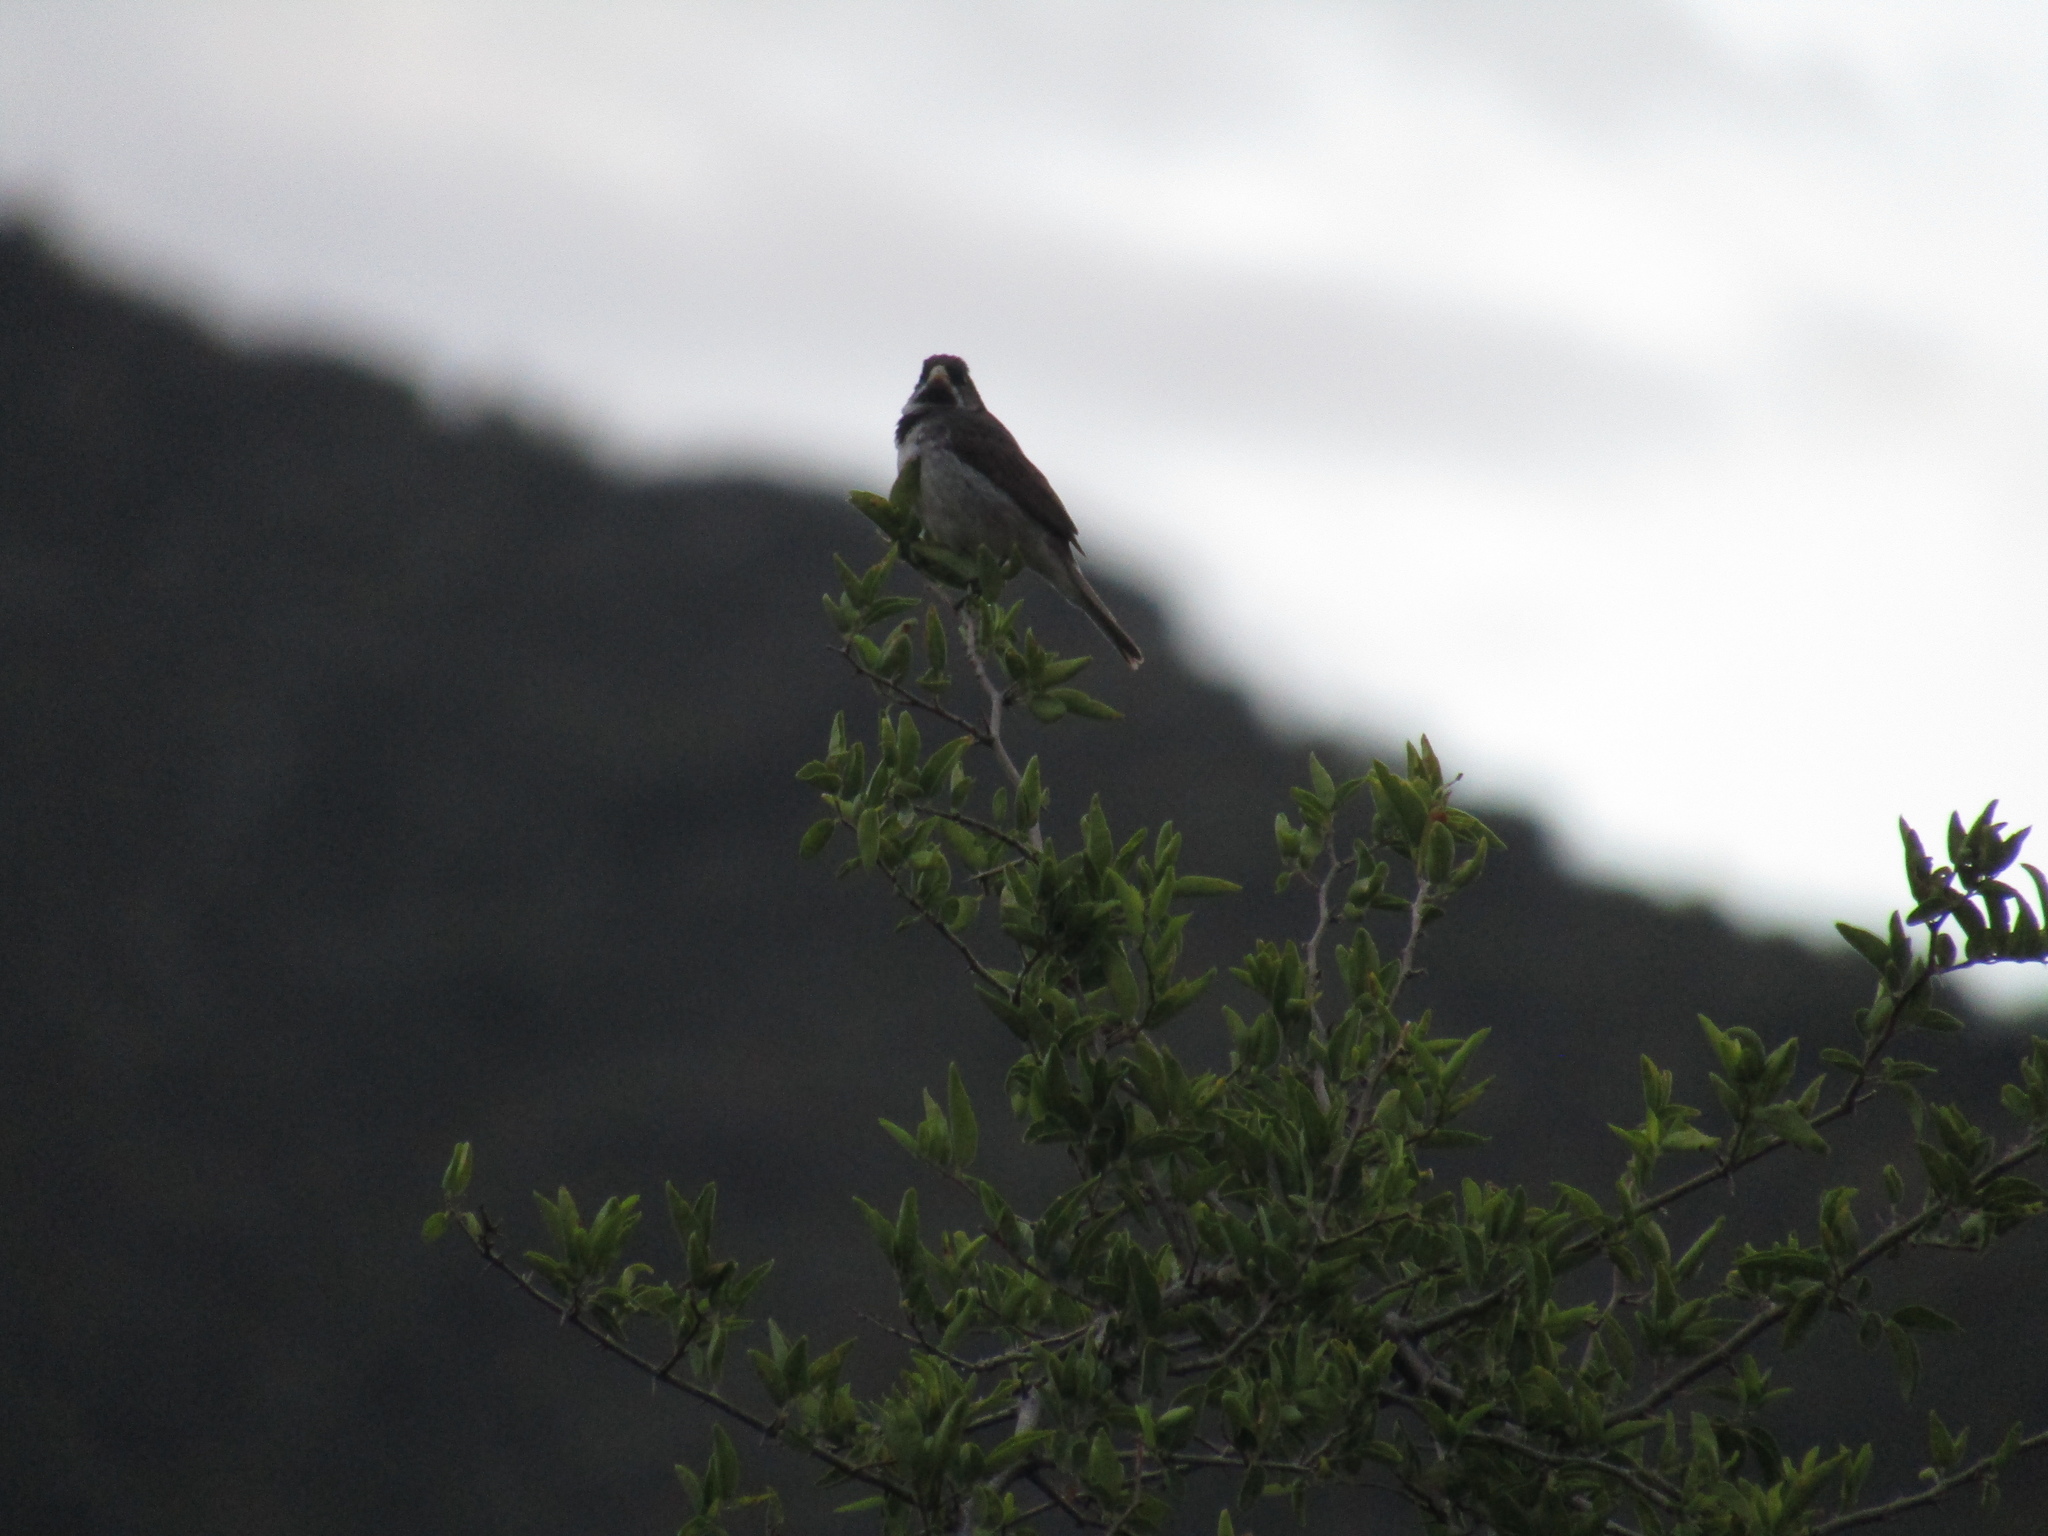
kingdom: Animalia
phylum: Chordata
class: Aves
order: Passeriformes
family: Thraupidae
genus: Sporophila
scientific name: Sporophila caerulescens
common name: Double-collared seedeater
